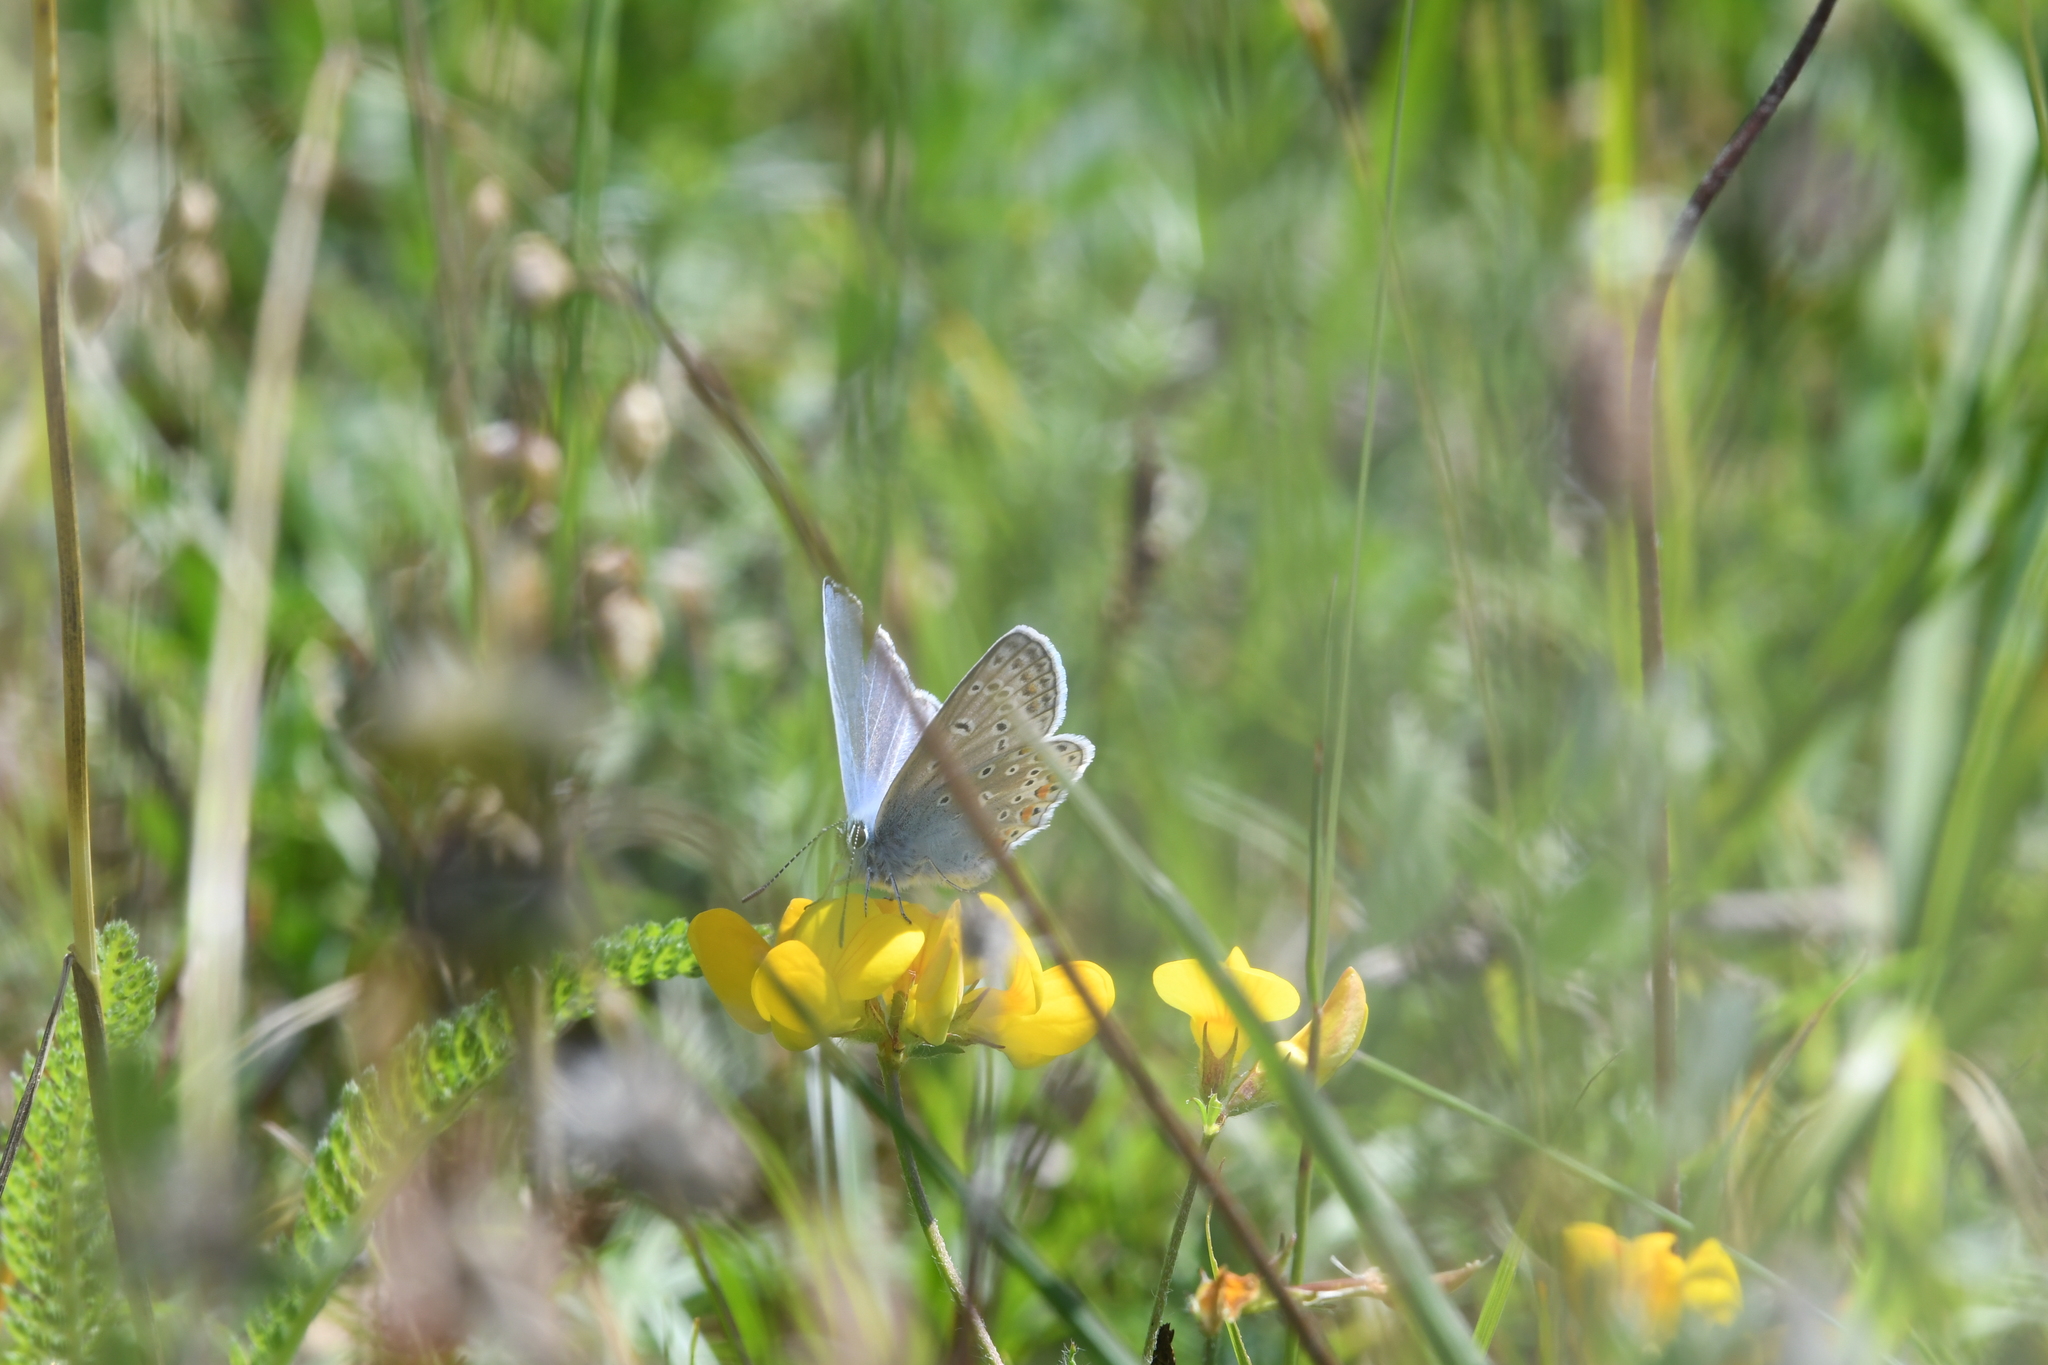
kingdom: Animalia
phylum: Arthropoda
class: Insecta
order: Lepidoptera
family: Lycaenidae
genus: Polyommatus
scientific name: Polyommatus icarus
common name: Common blue
